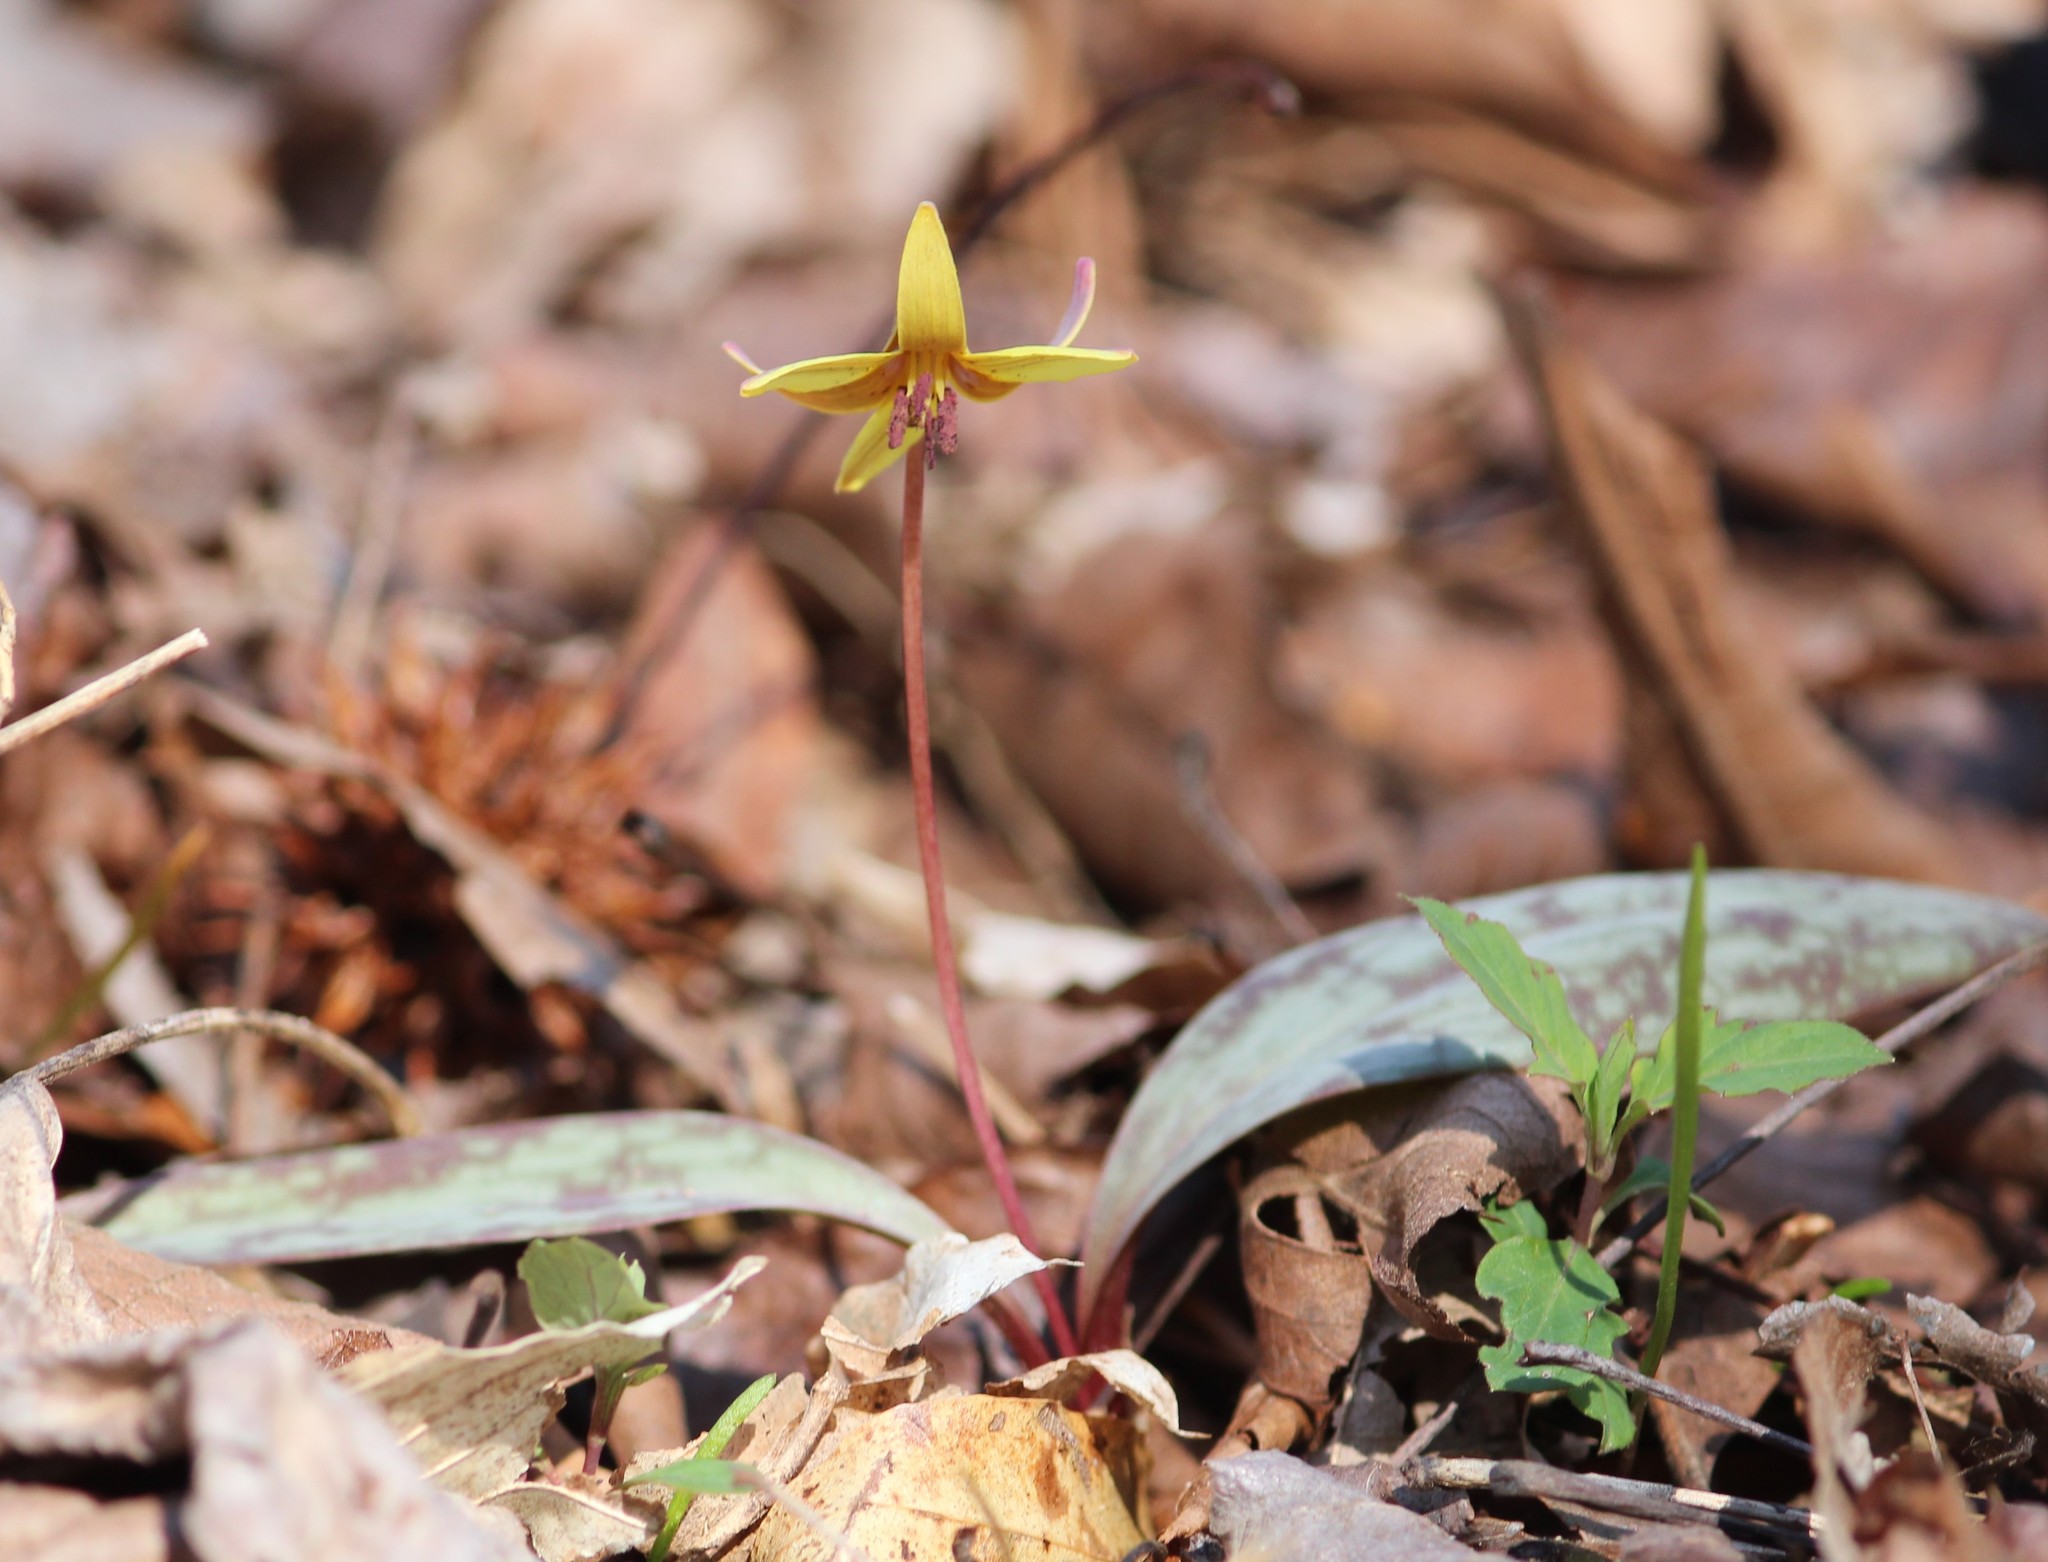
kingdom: Plantae
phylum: Tracheophyta
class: Liliopsida
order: Liliales
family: Liliaceae
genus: Erythronium
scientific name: Erythronium umbilicatum
